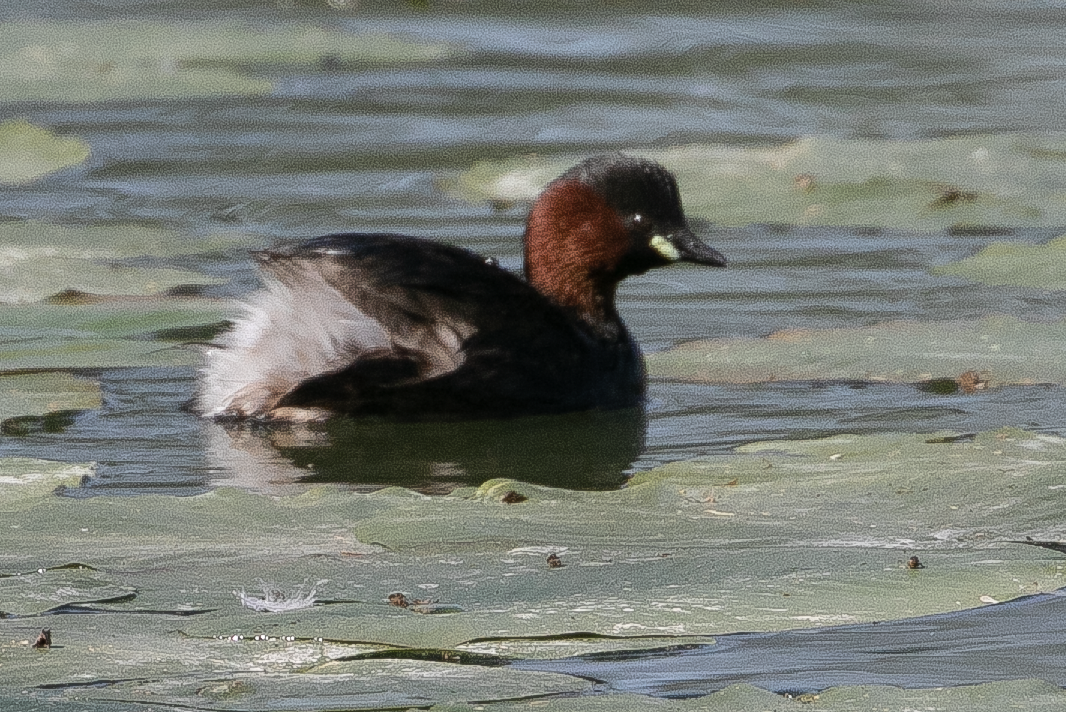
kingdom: Animalia
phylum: Chordata
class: Aves
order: Podicipediformes
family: Podicipedidae
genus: Tachybaptus
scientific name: Tachybaptus ruficollis
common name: Little grebe
